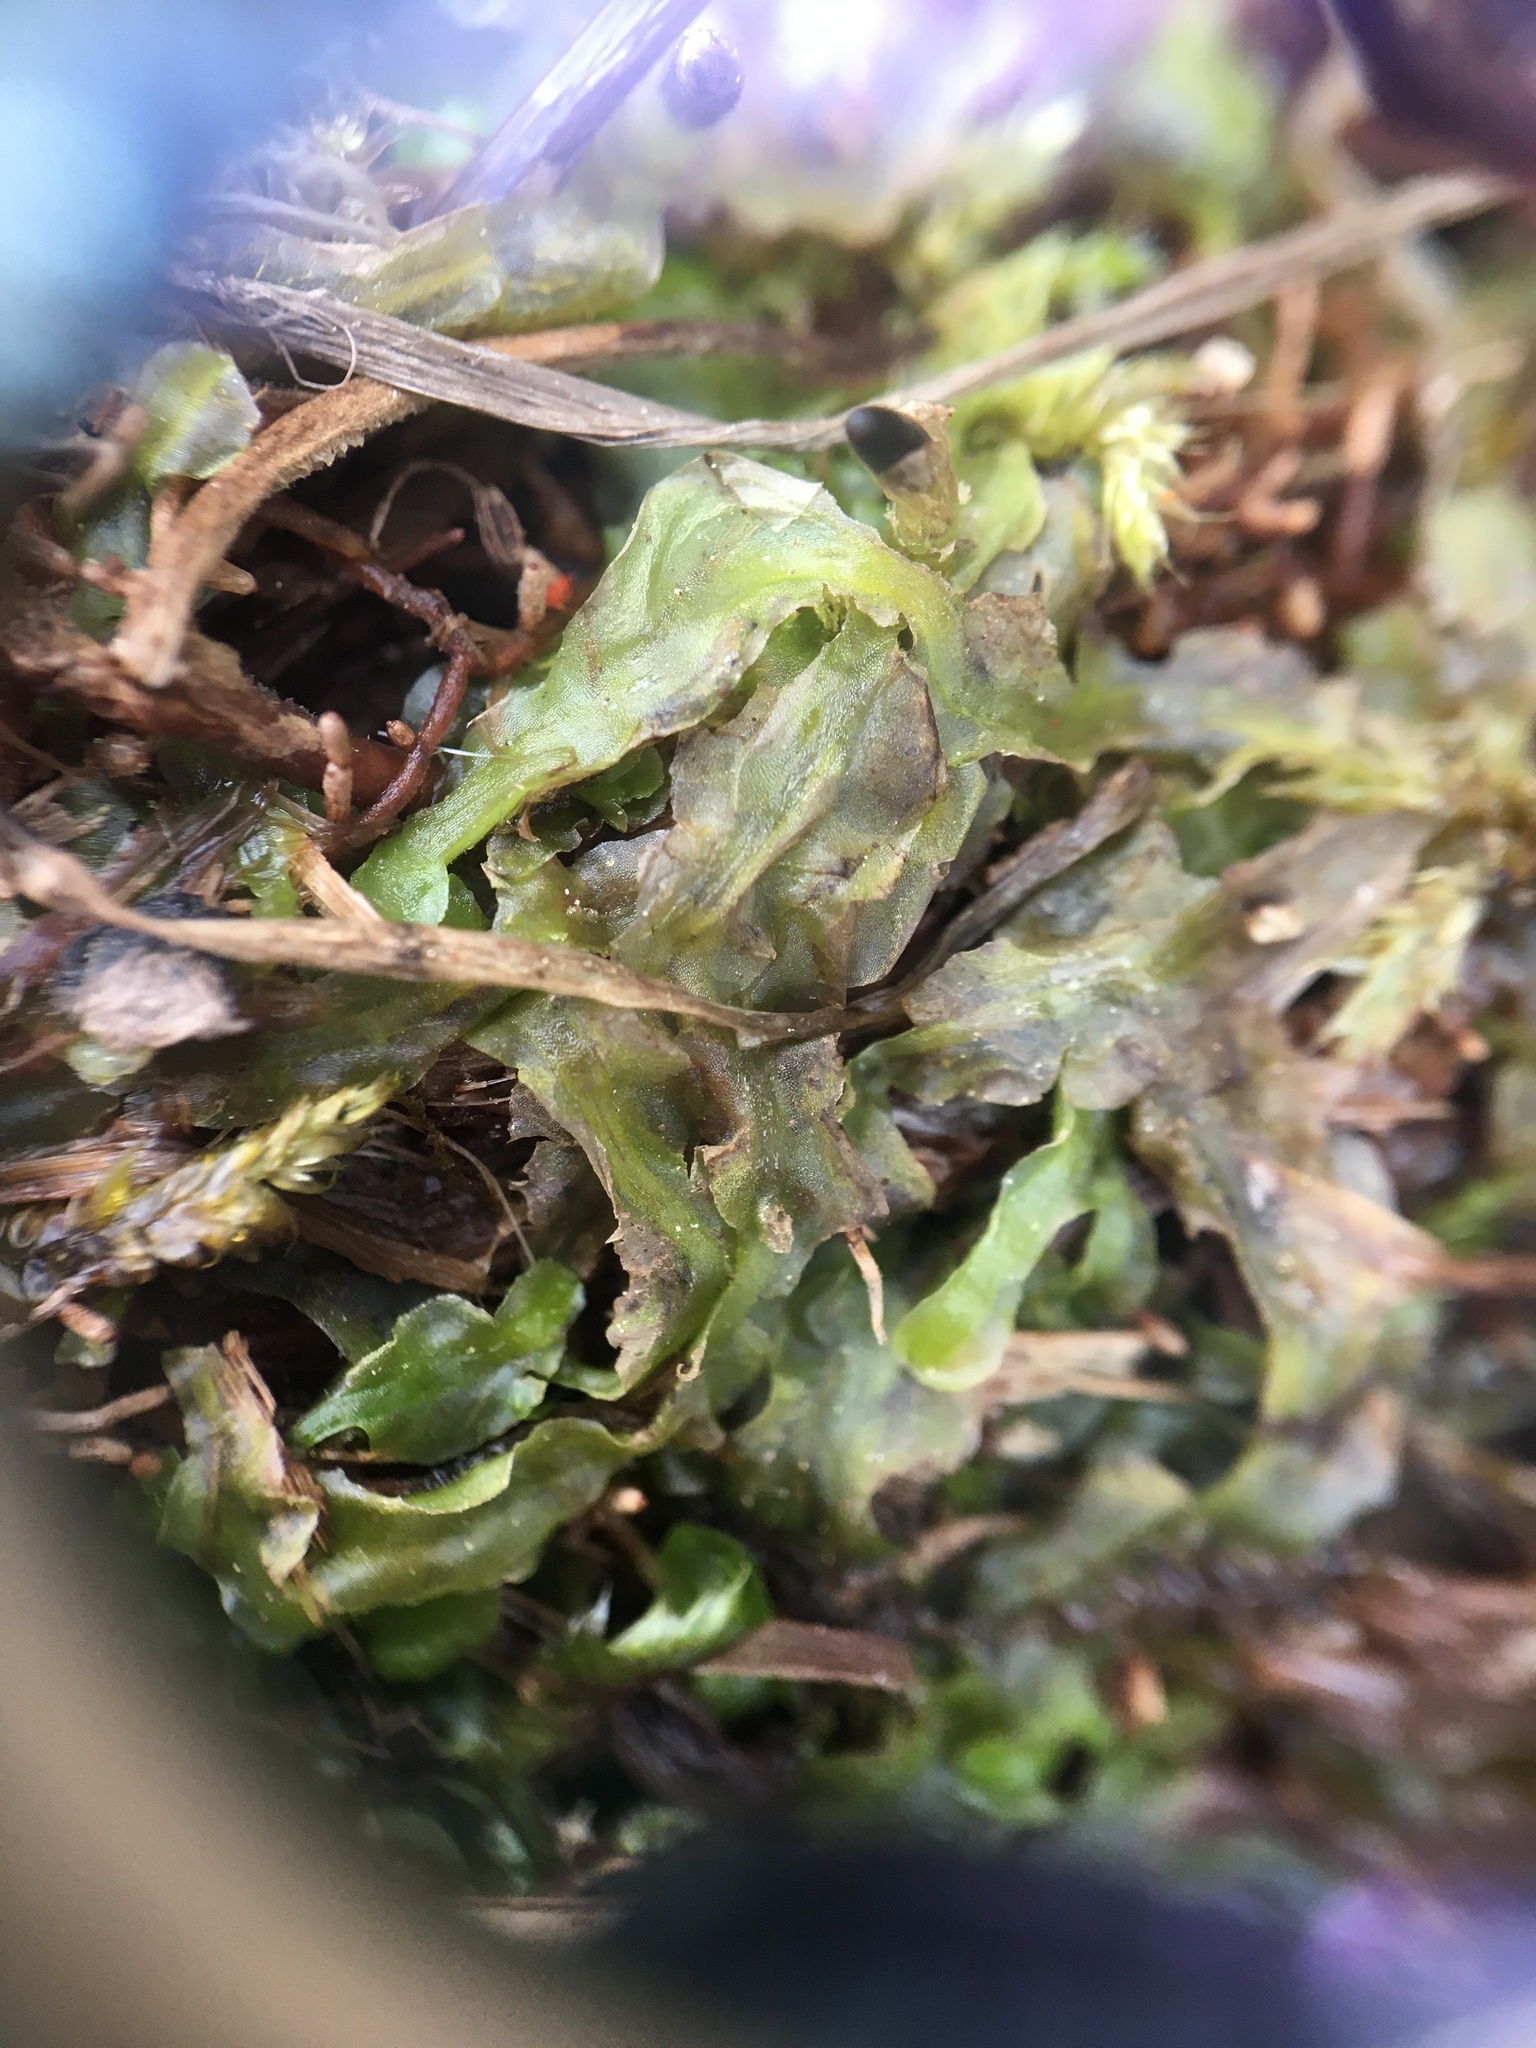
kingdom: Plantae
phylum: Marchantiophyta
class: Jungermanniopsida
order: Pallaviciniales
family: Pallaviciniaceae
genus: Pallavicinia
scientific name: Pallavicinia lyellii
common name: Veilwort
